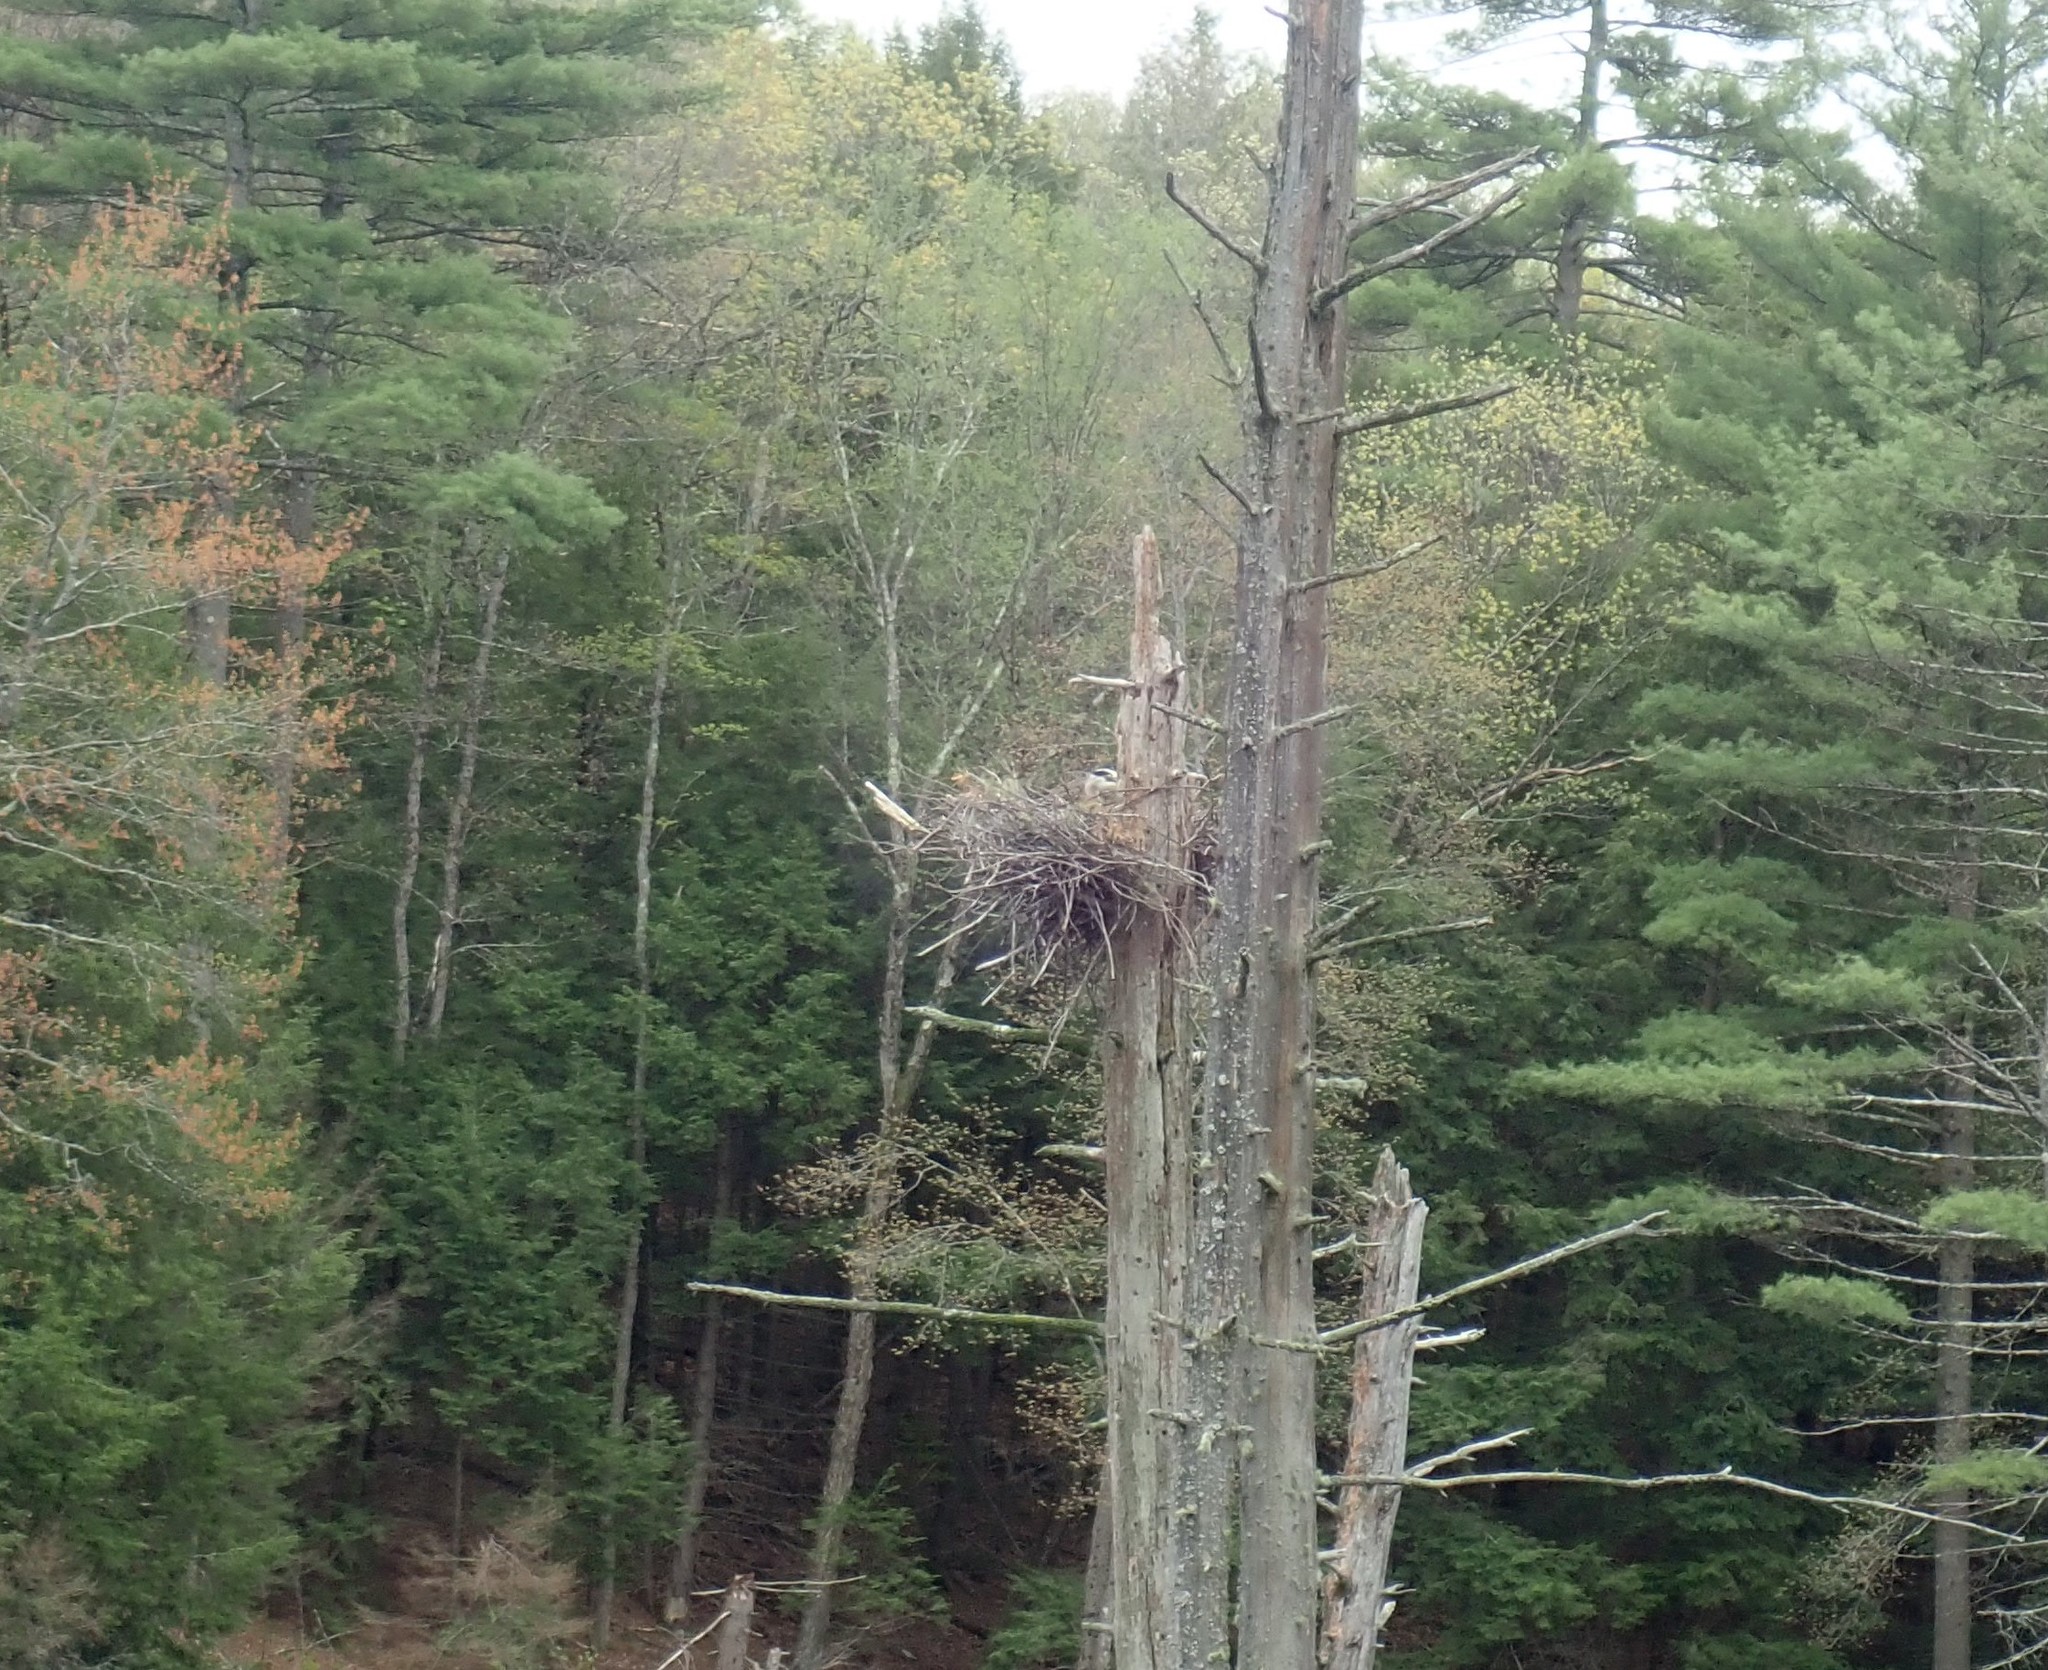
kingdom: Animalia
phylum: Chordata
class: Aves
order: Pelecaniformes
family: Ardeidae
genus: Ardea
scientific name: Ardea herodias
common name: Great blue heron
